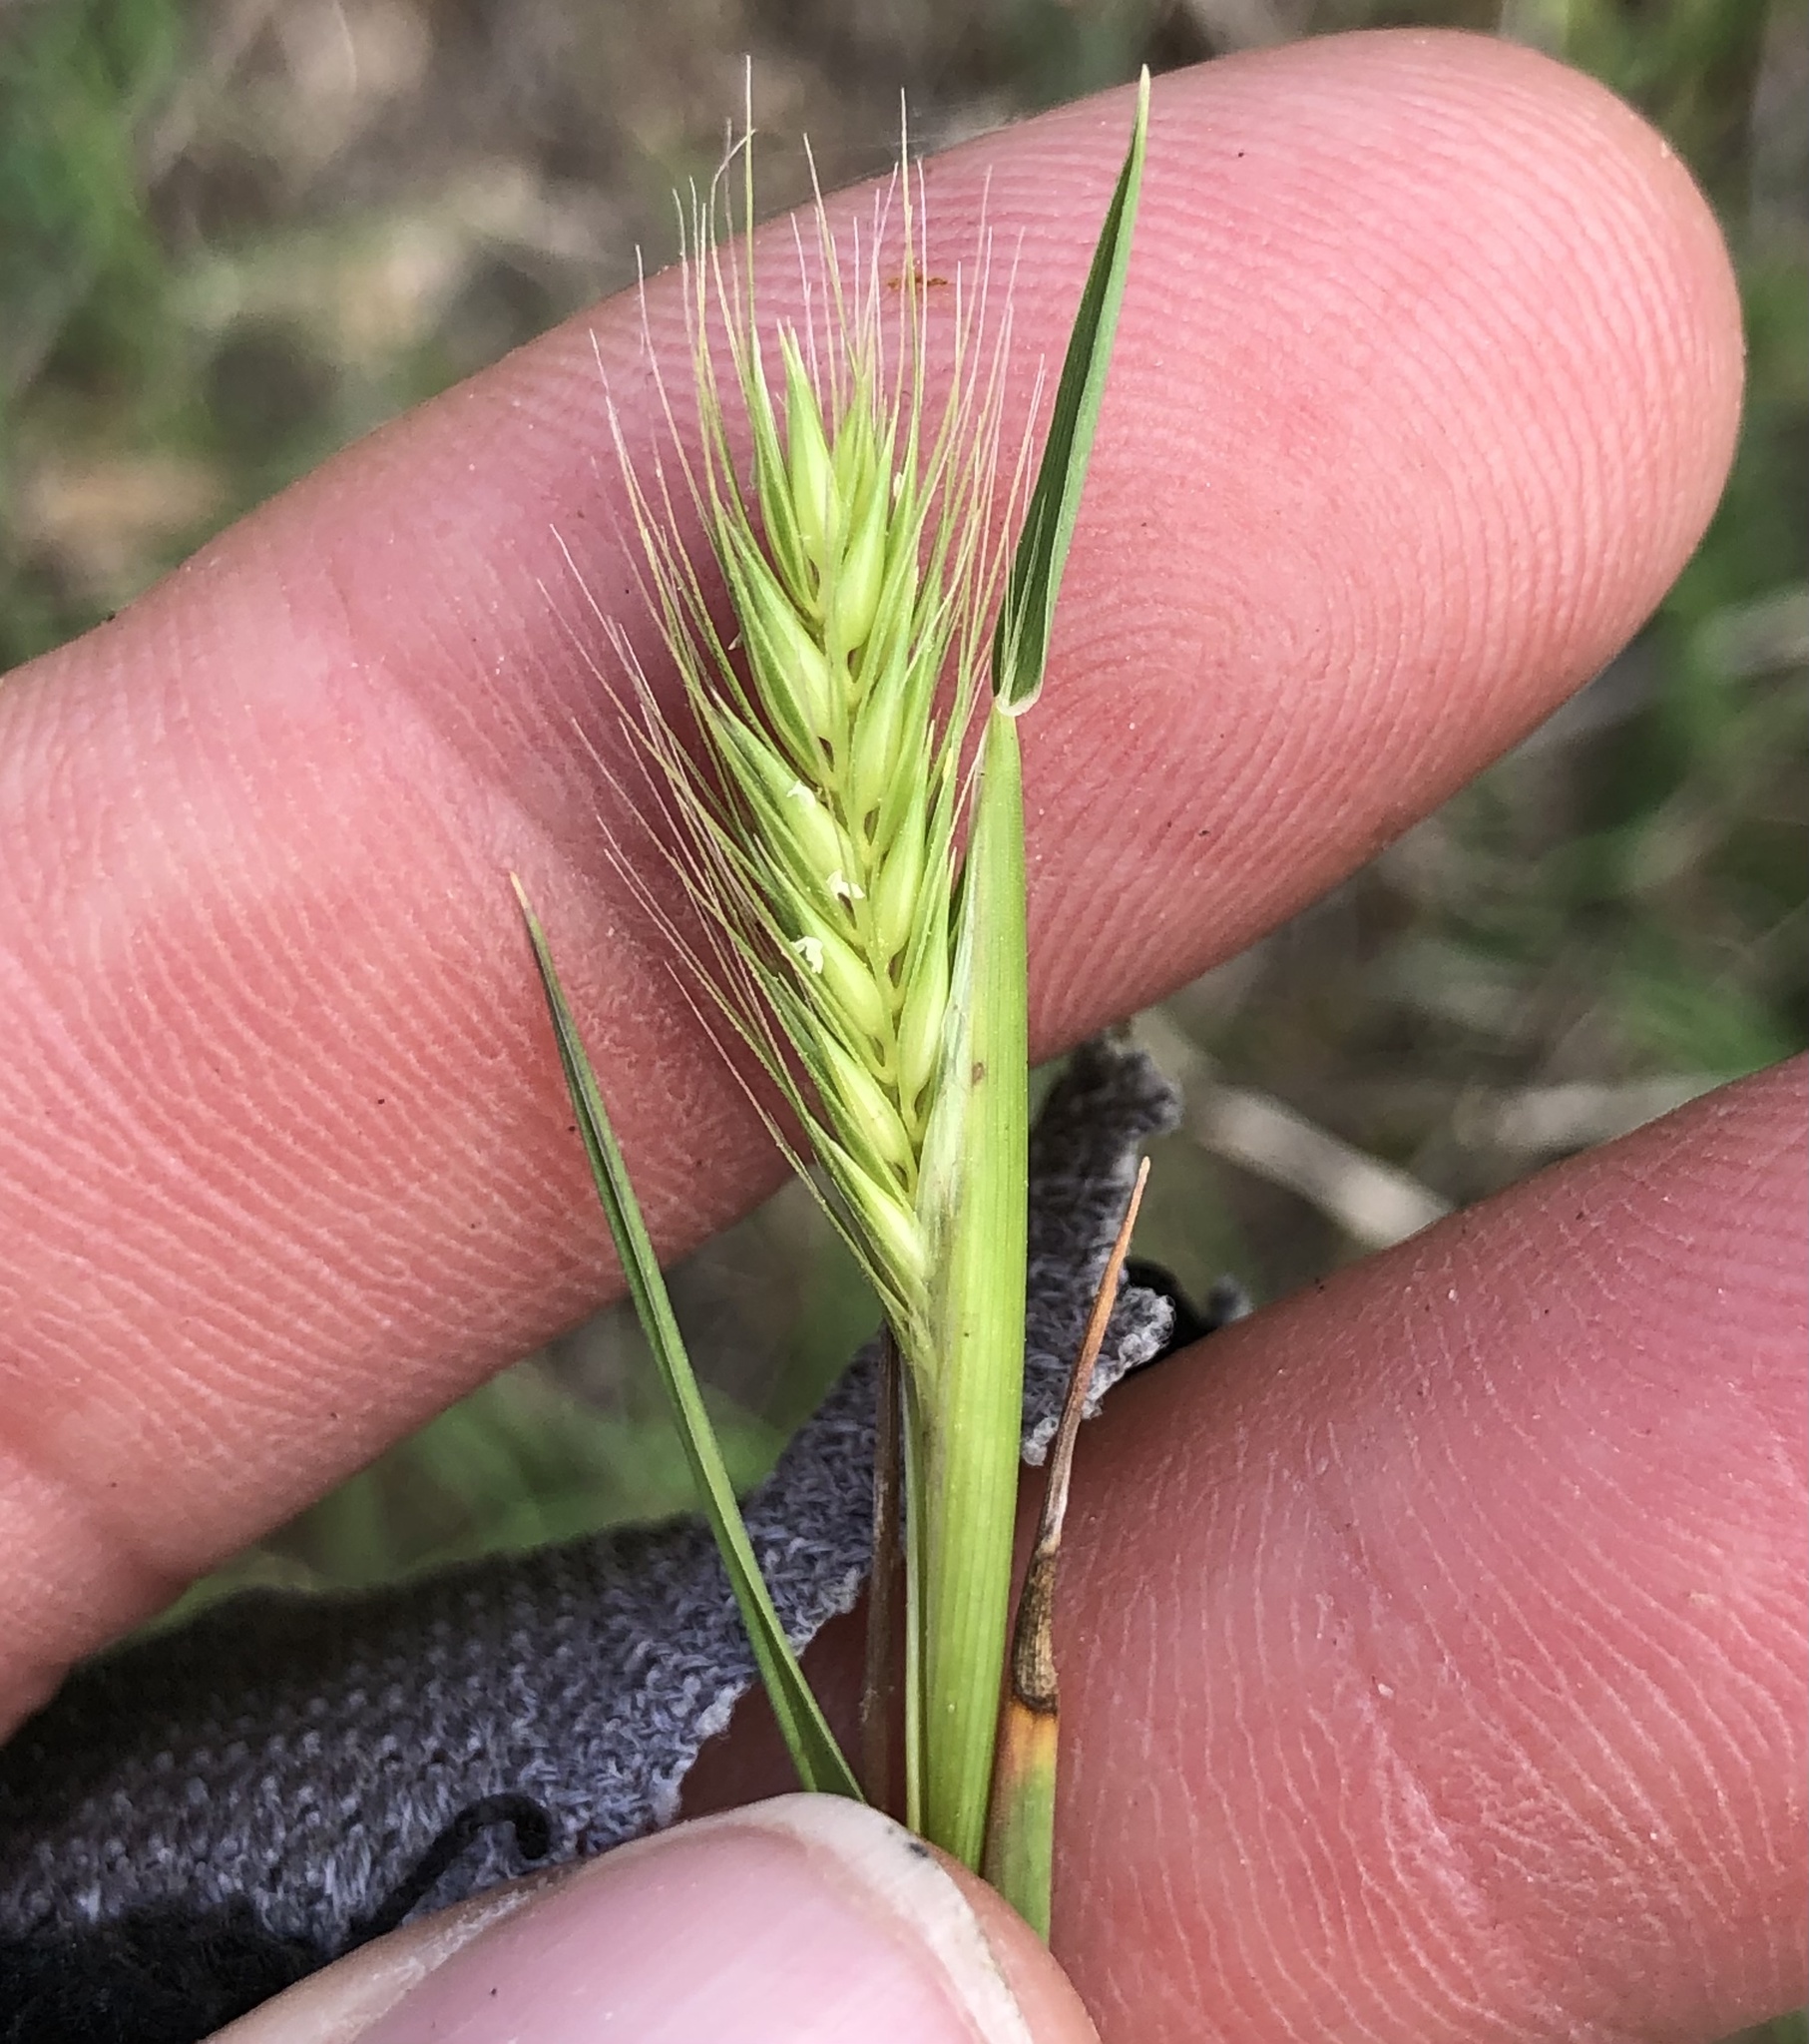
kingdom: Plantae
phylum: Tracheophyta
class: Liliopsida
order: Poales
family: Poaceae
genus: Hordeum
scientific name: Hordeum pusillum
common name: Little barley
